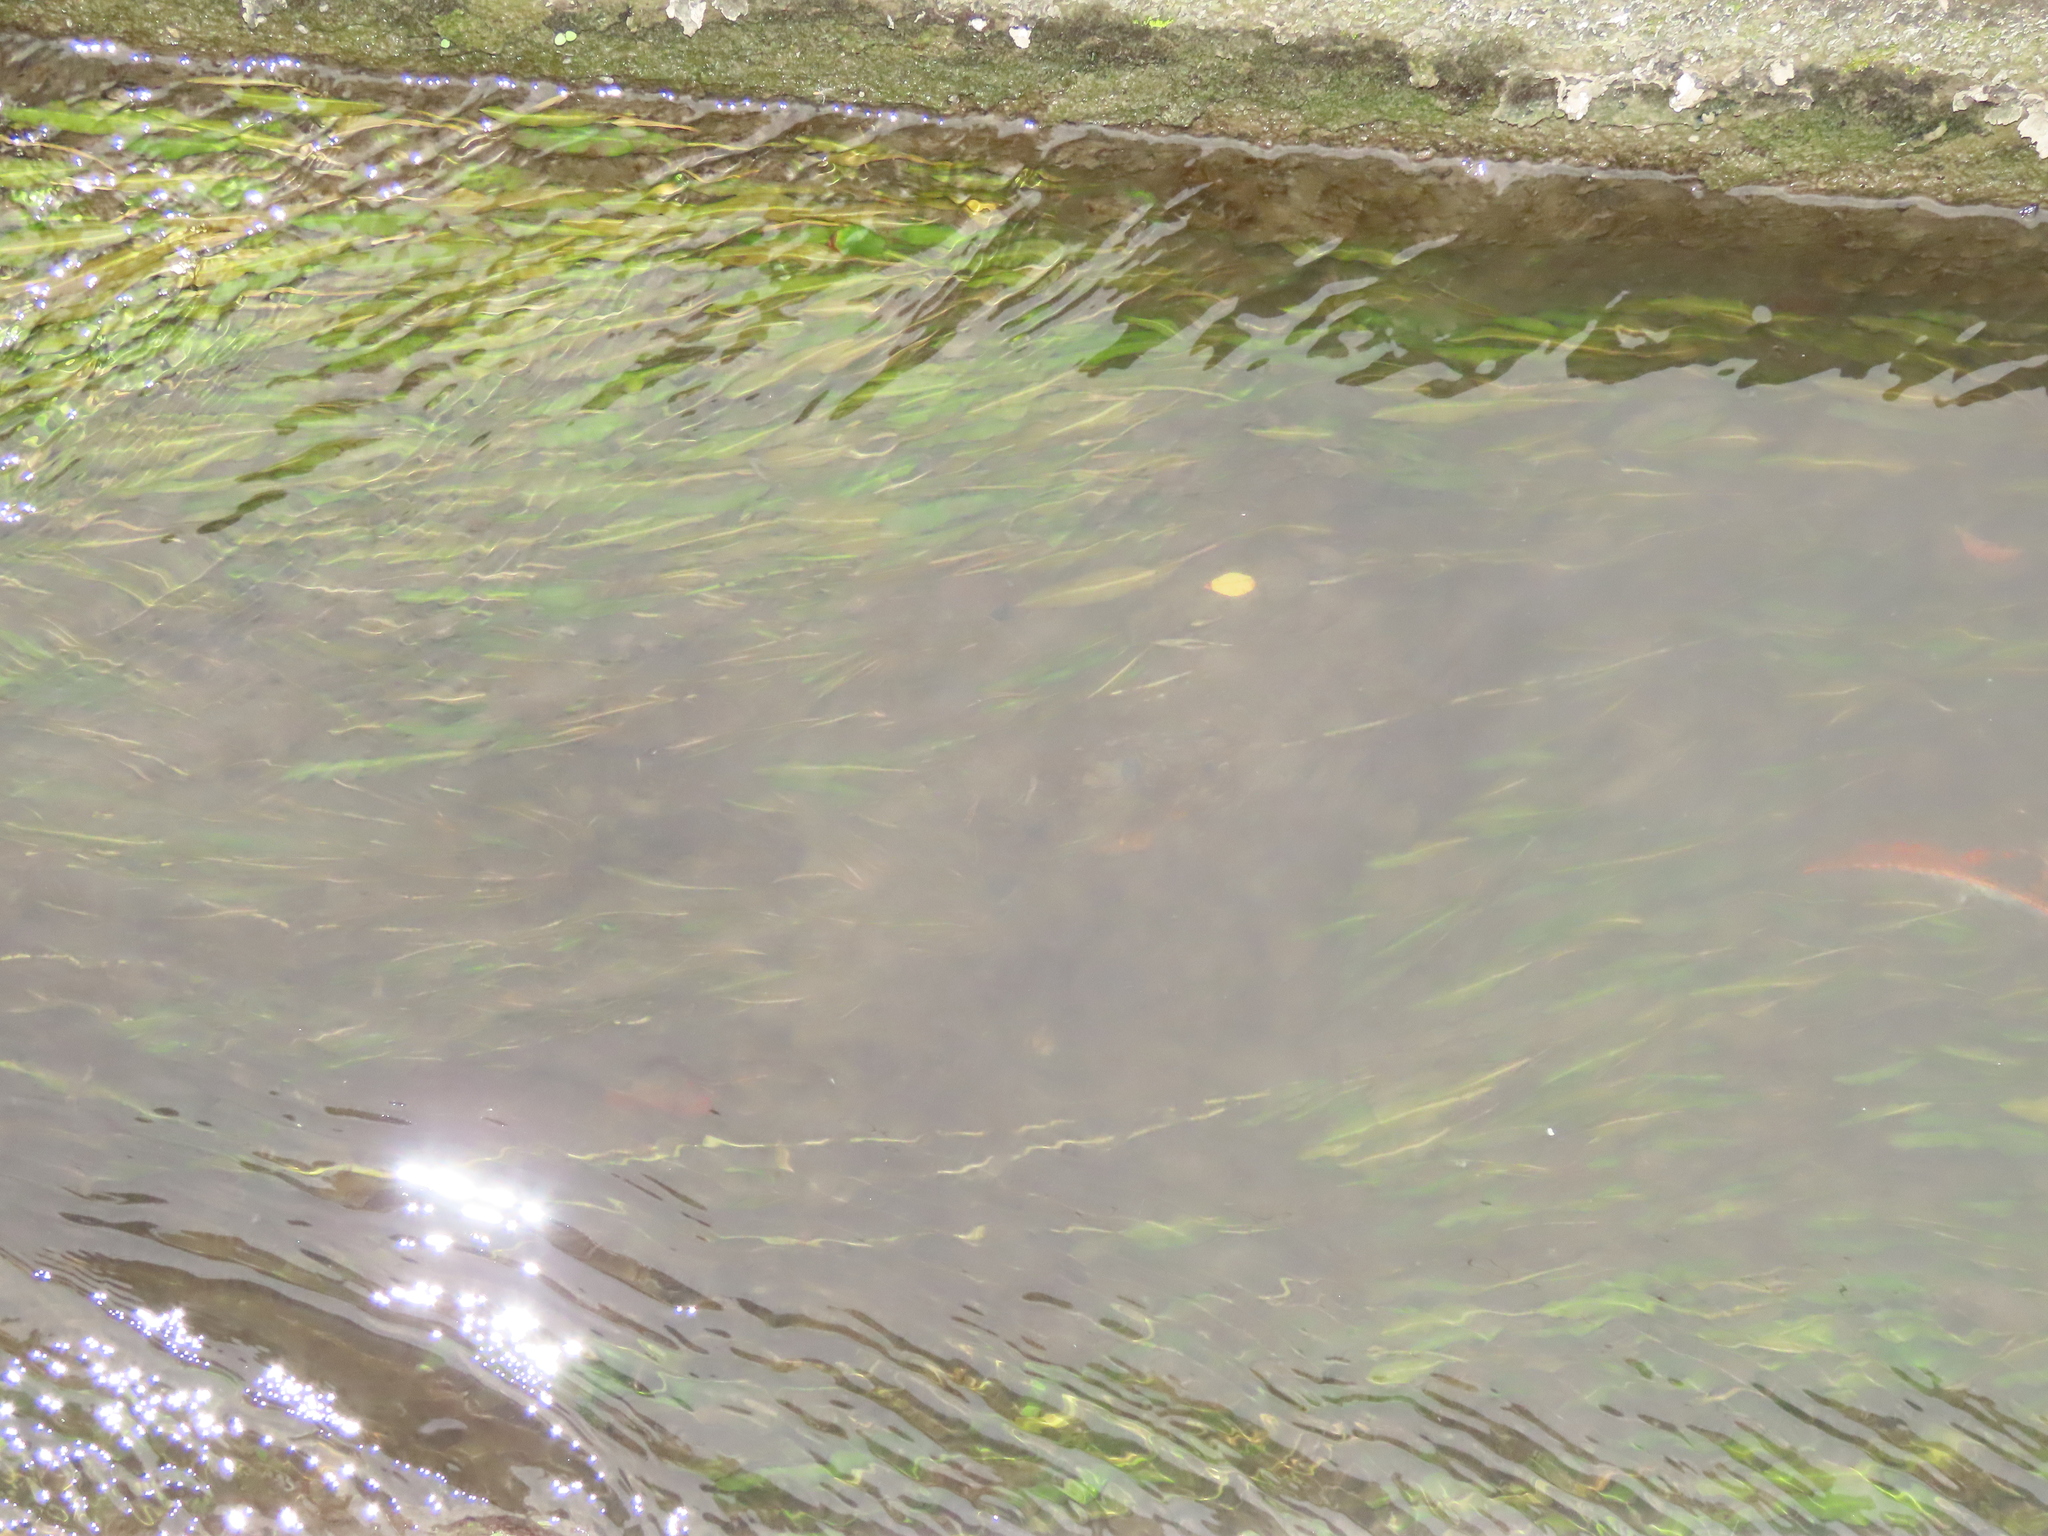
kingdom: Plantae
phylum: Tracheophyta
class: Liliopsida
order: Alismatales
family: Potamogetonaceae
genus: Potamogeton
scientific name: Potamogeton wrightii
